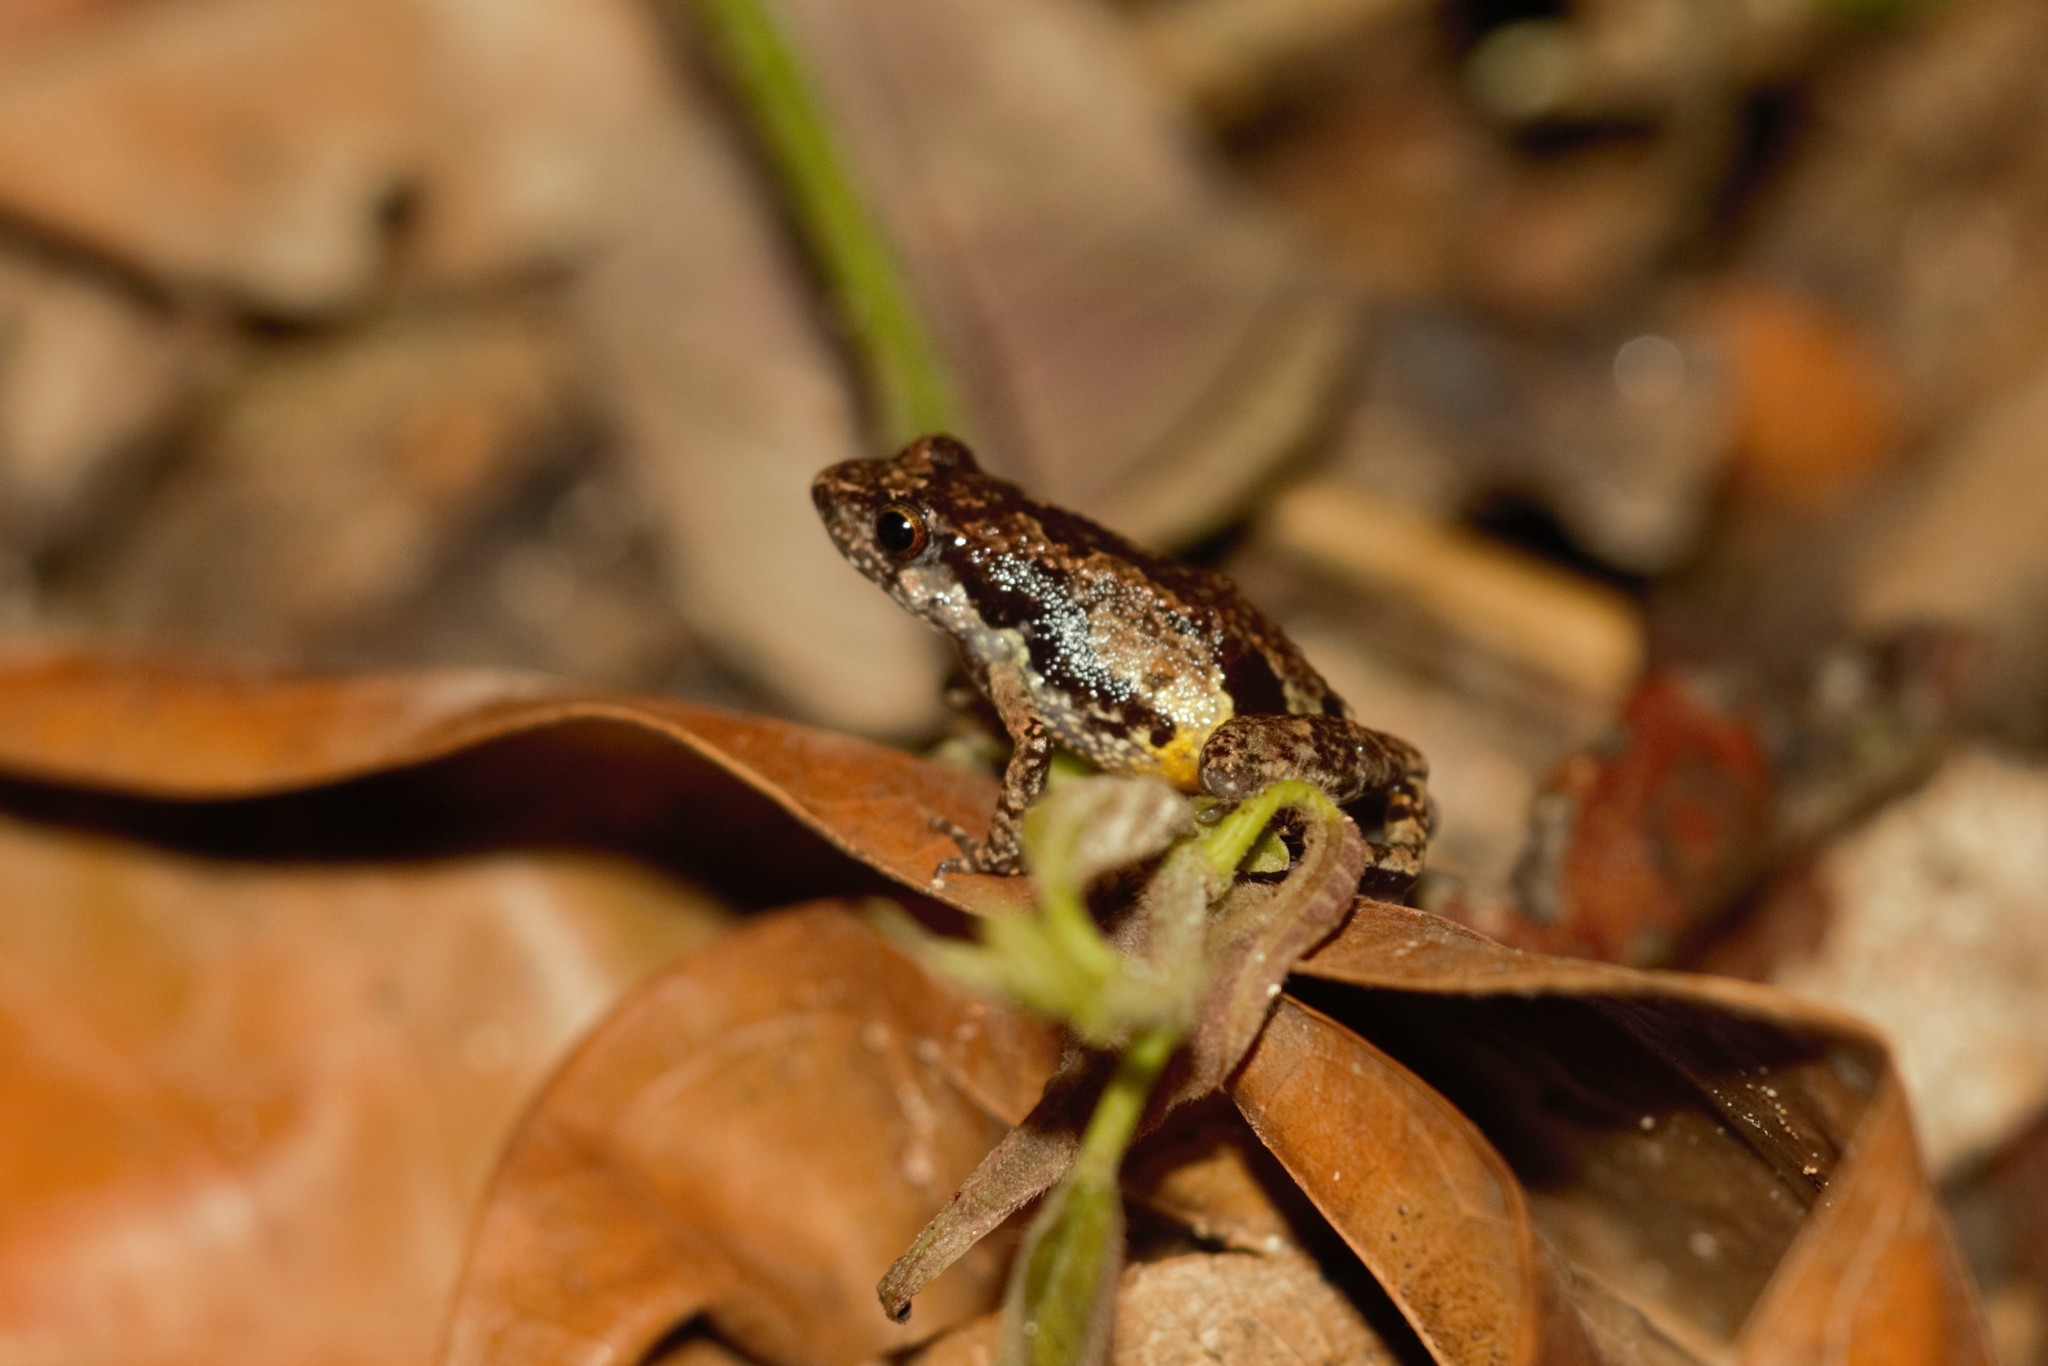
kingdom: Animalia
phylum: Chordata
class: Amphibia
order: Anura
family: Arthroleptidae
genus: Arthroleptis
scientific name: Arthroleptis sylvaticus
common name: Forest screeching frog
